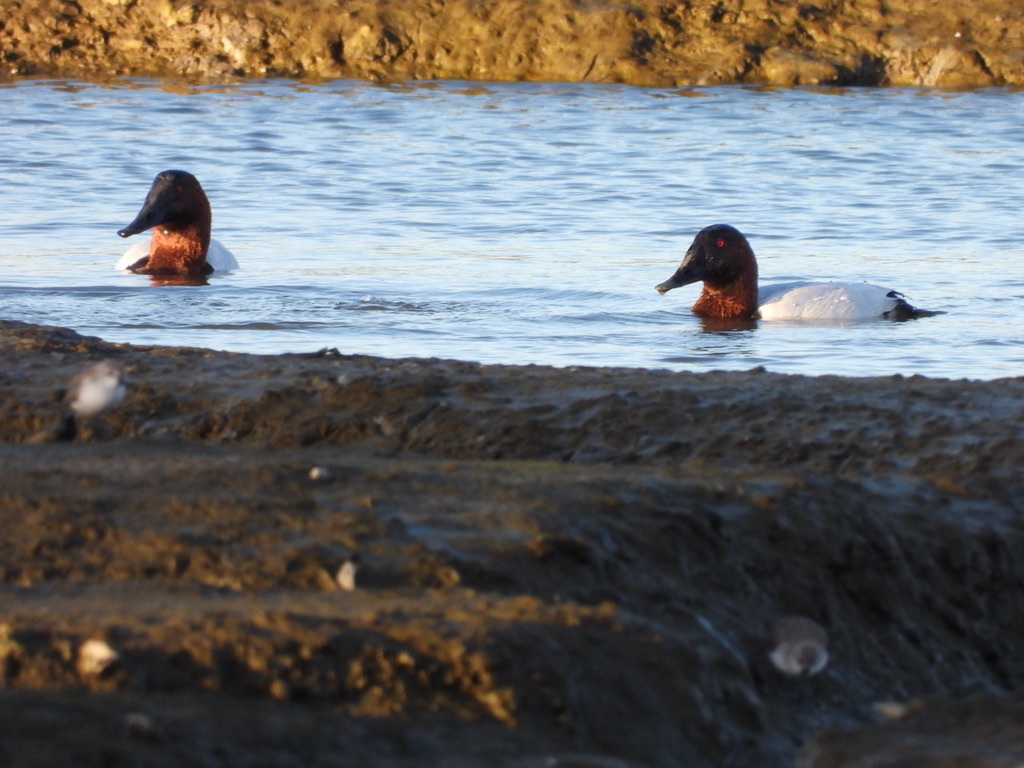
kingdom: Animalia
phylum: Chordata
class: Aves
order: Anseriformes
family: Anatidae
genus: Aythya
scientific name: Aythya valisineria
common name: Canvasback
